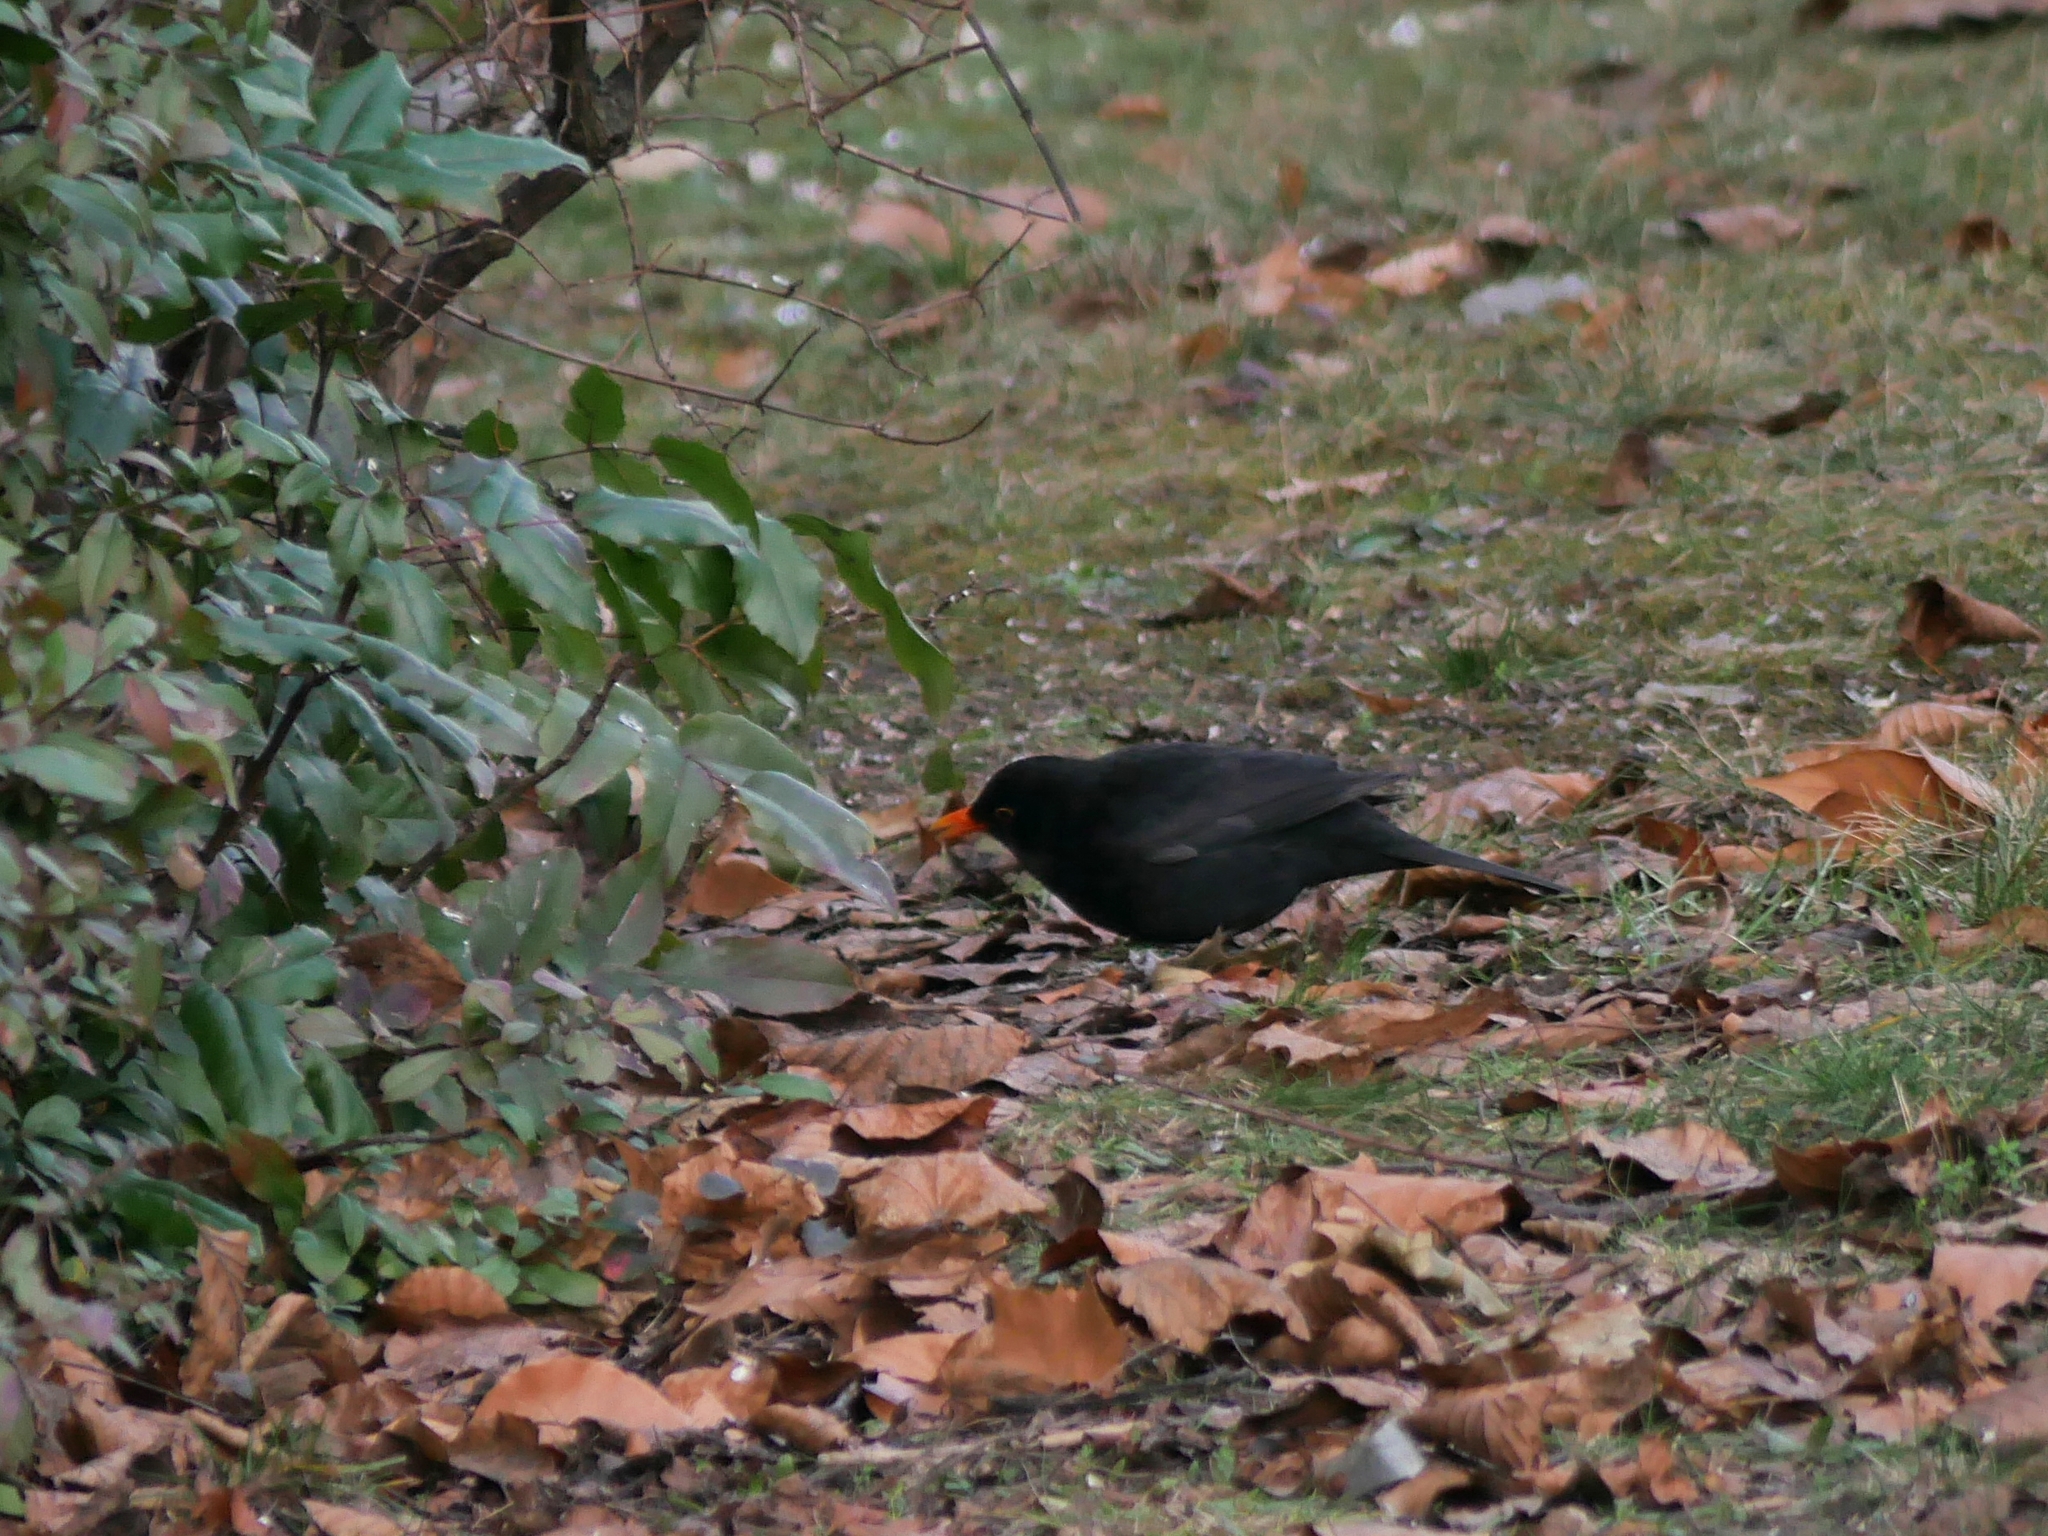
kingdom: Animalia
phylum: Chordata
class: Aves
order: Passeriformes
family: Turdidae
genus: Turdus
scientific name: Turdus merula
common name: Common blackbird
